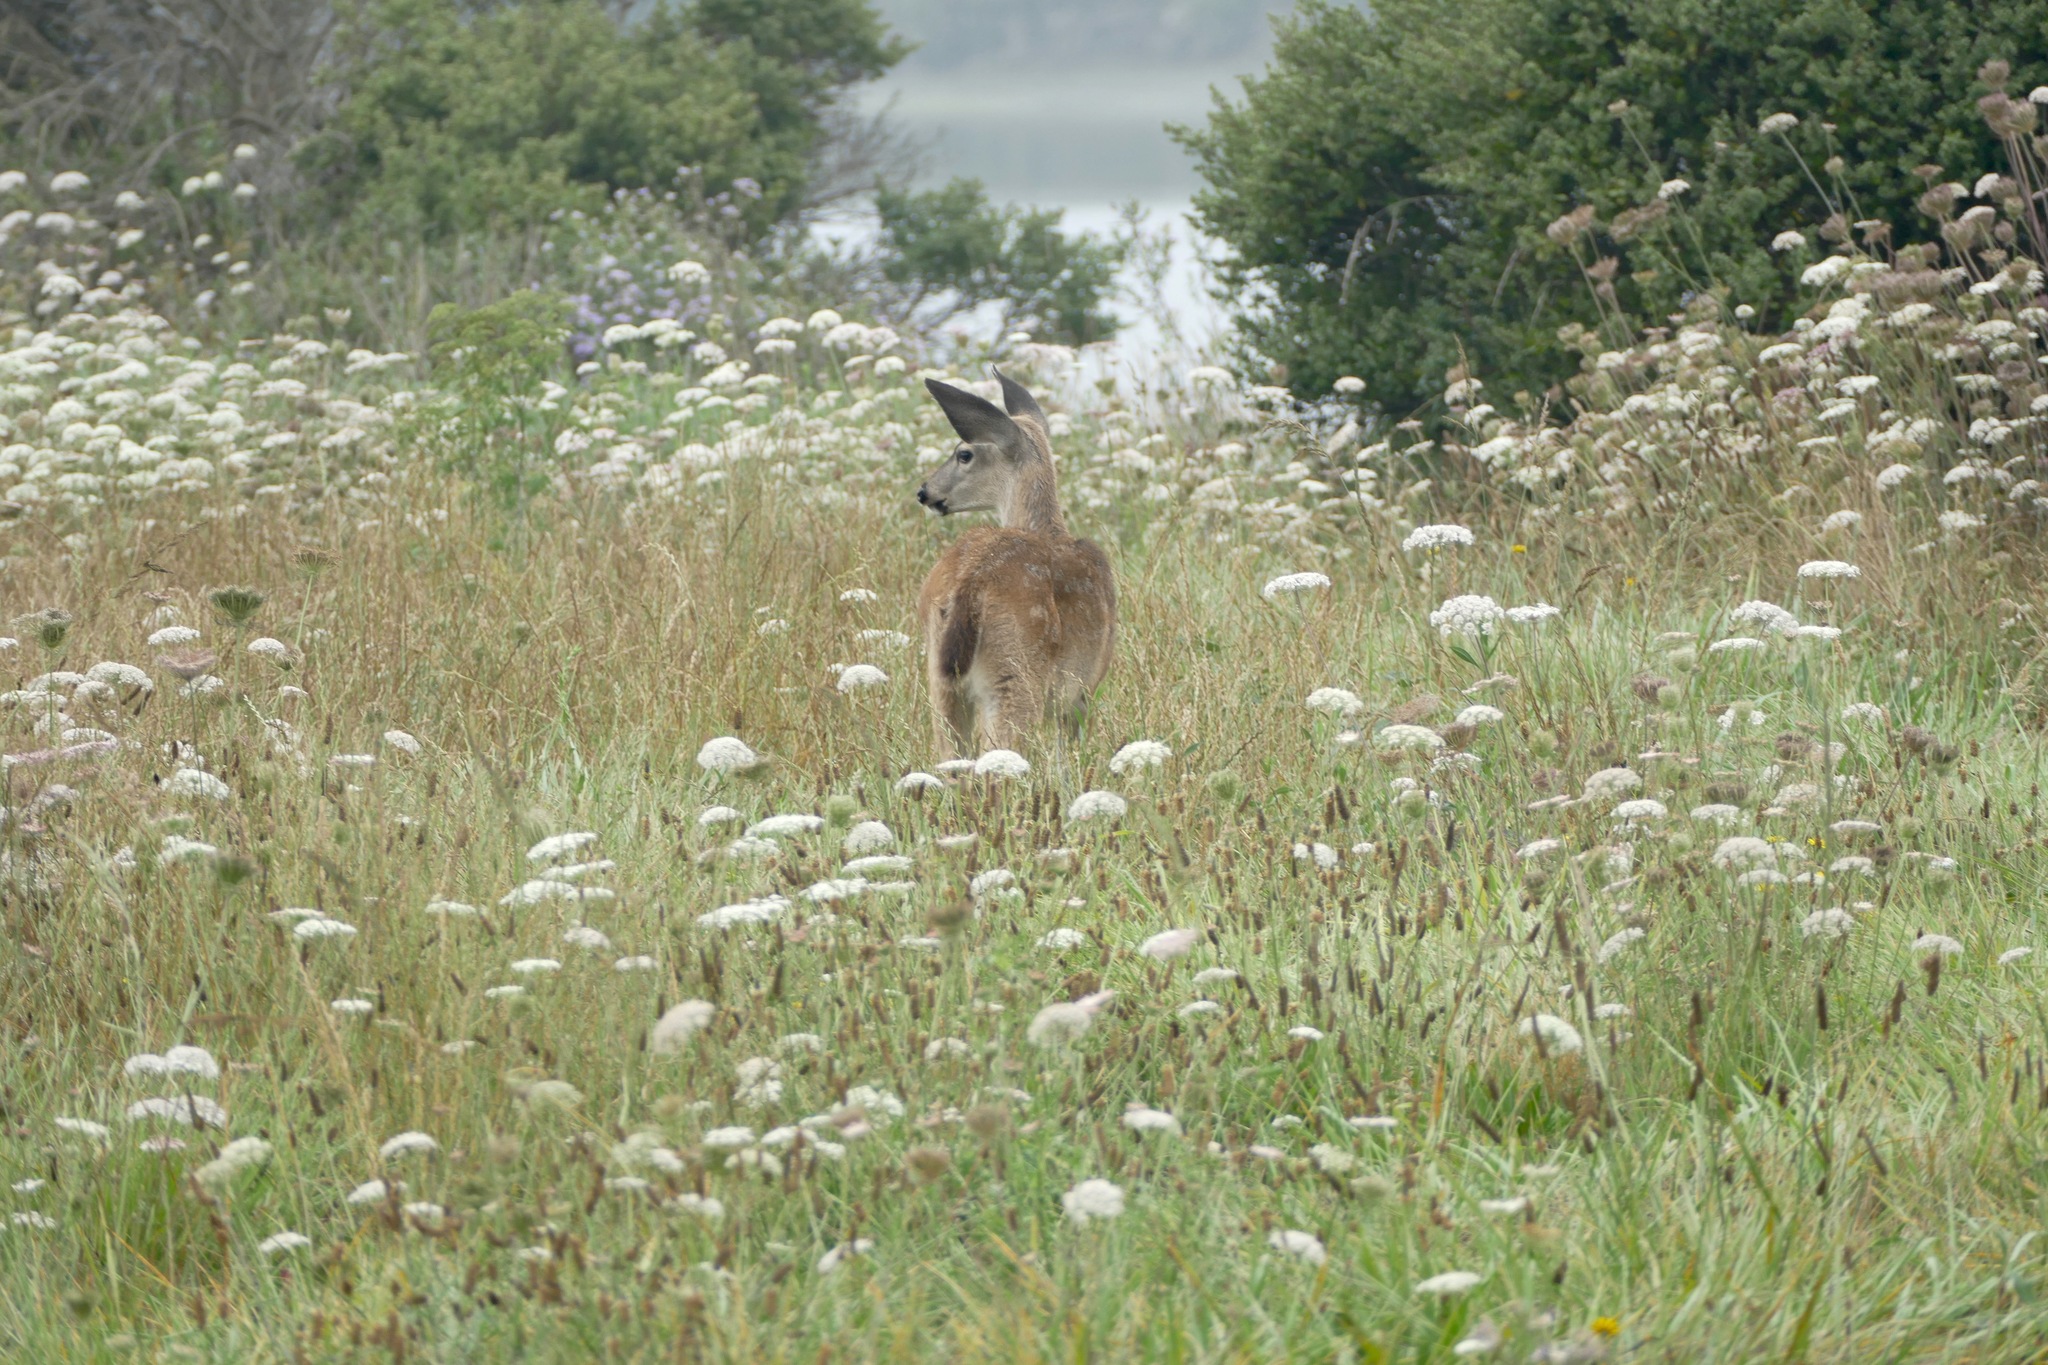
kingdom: Animalia
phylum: Chordata
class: Mammalia
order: Artiodactyla
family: Cervidae
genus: Odocoileus
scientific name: Odocoileus hemionus
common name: Mule deer
